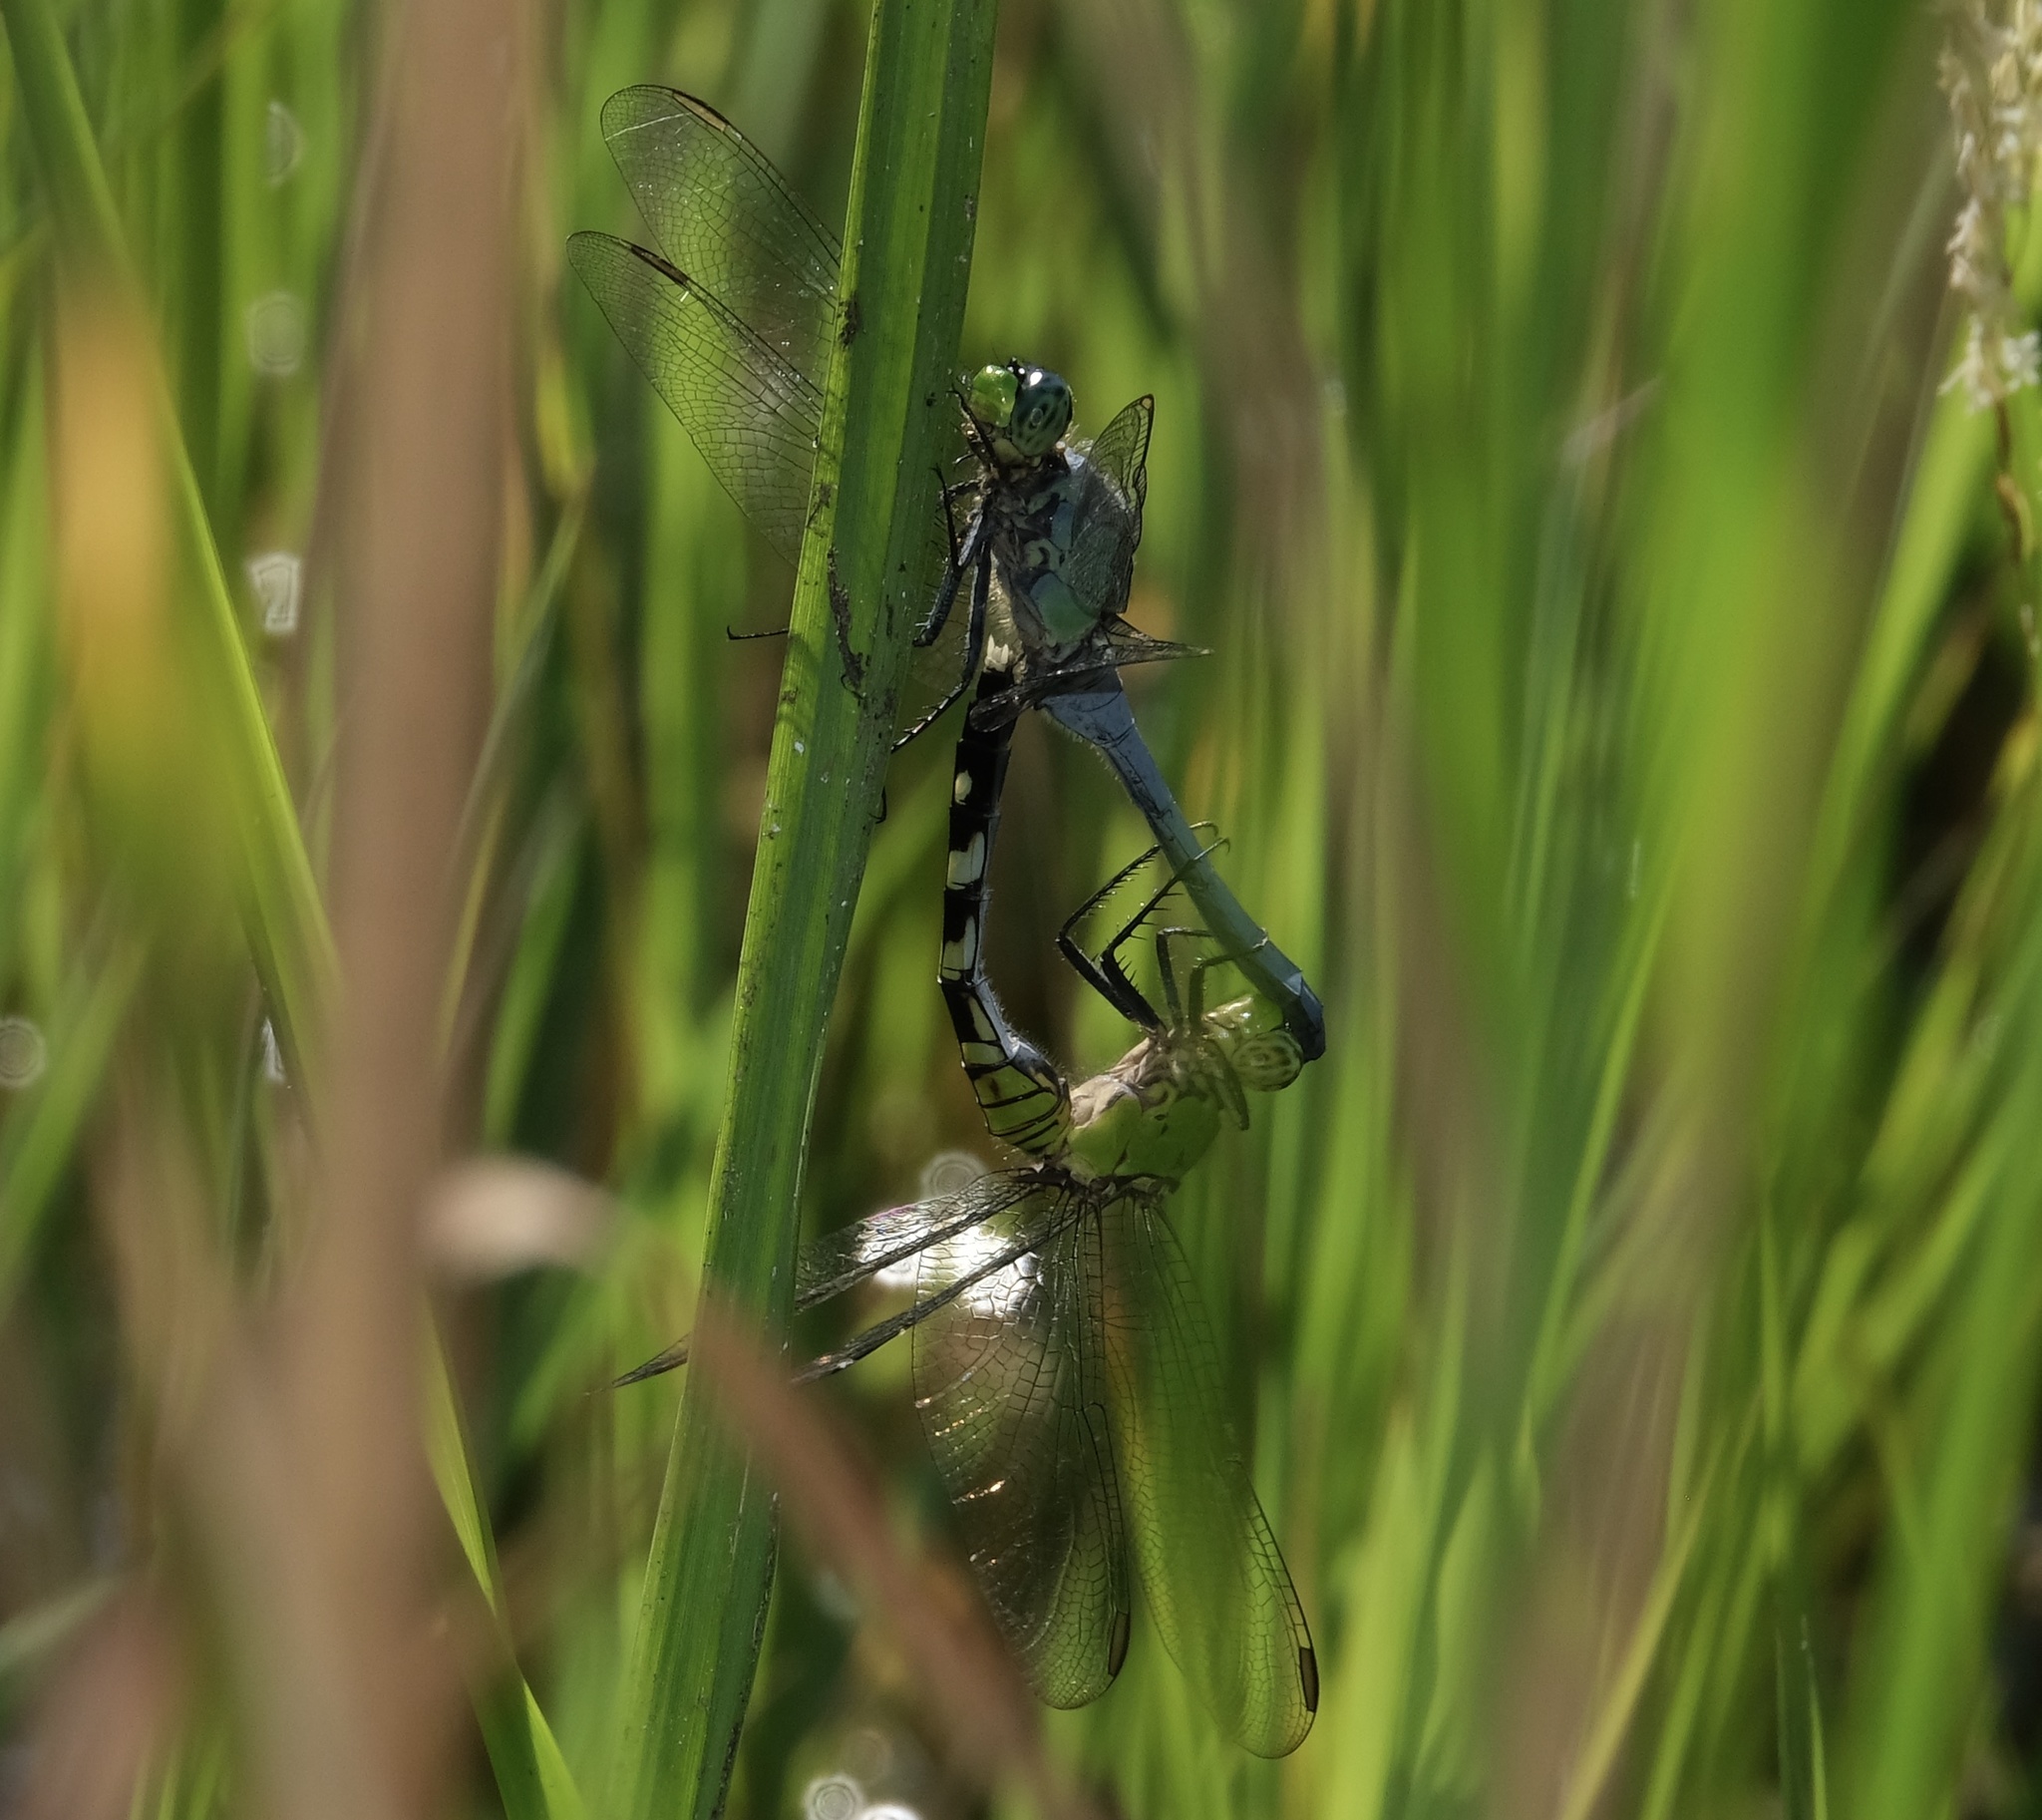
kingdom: Animalia
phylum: Arthropoda
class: Insecta
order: Odonata
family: Libellulidae
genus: Erythemis
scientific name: Erythemis simplicicollis
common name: Eastern pondhawk
